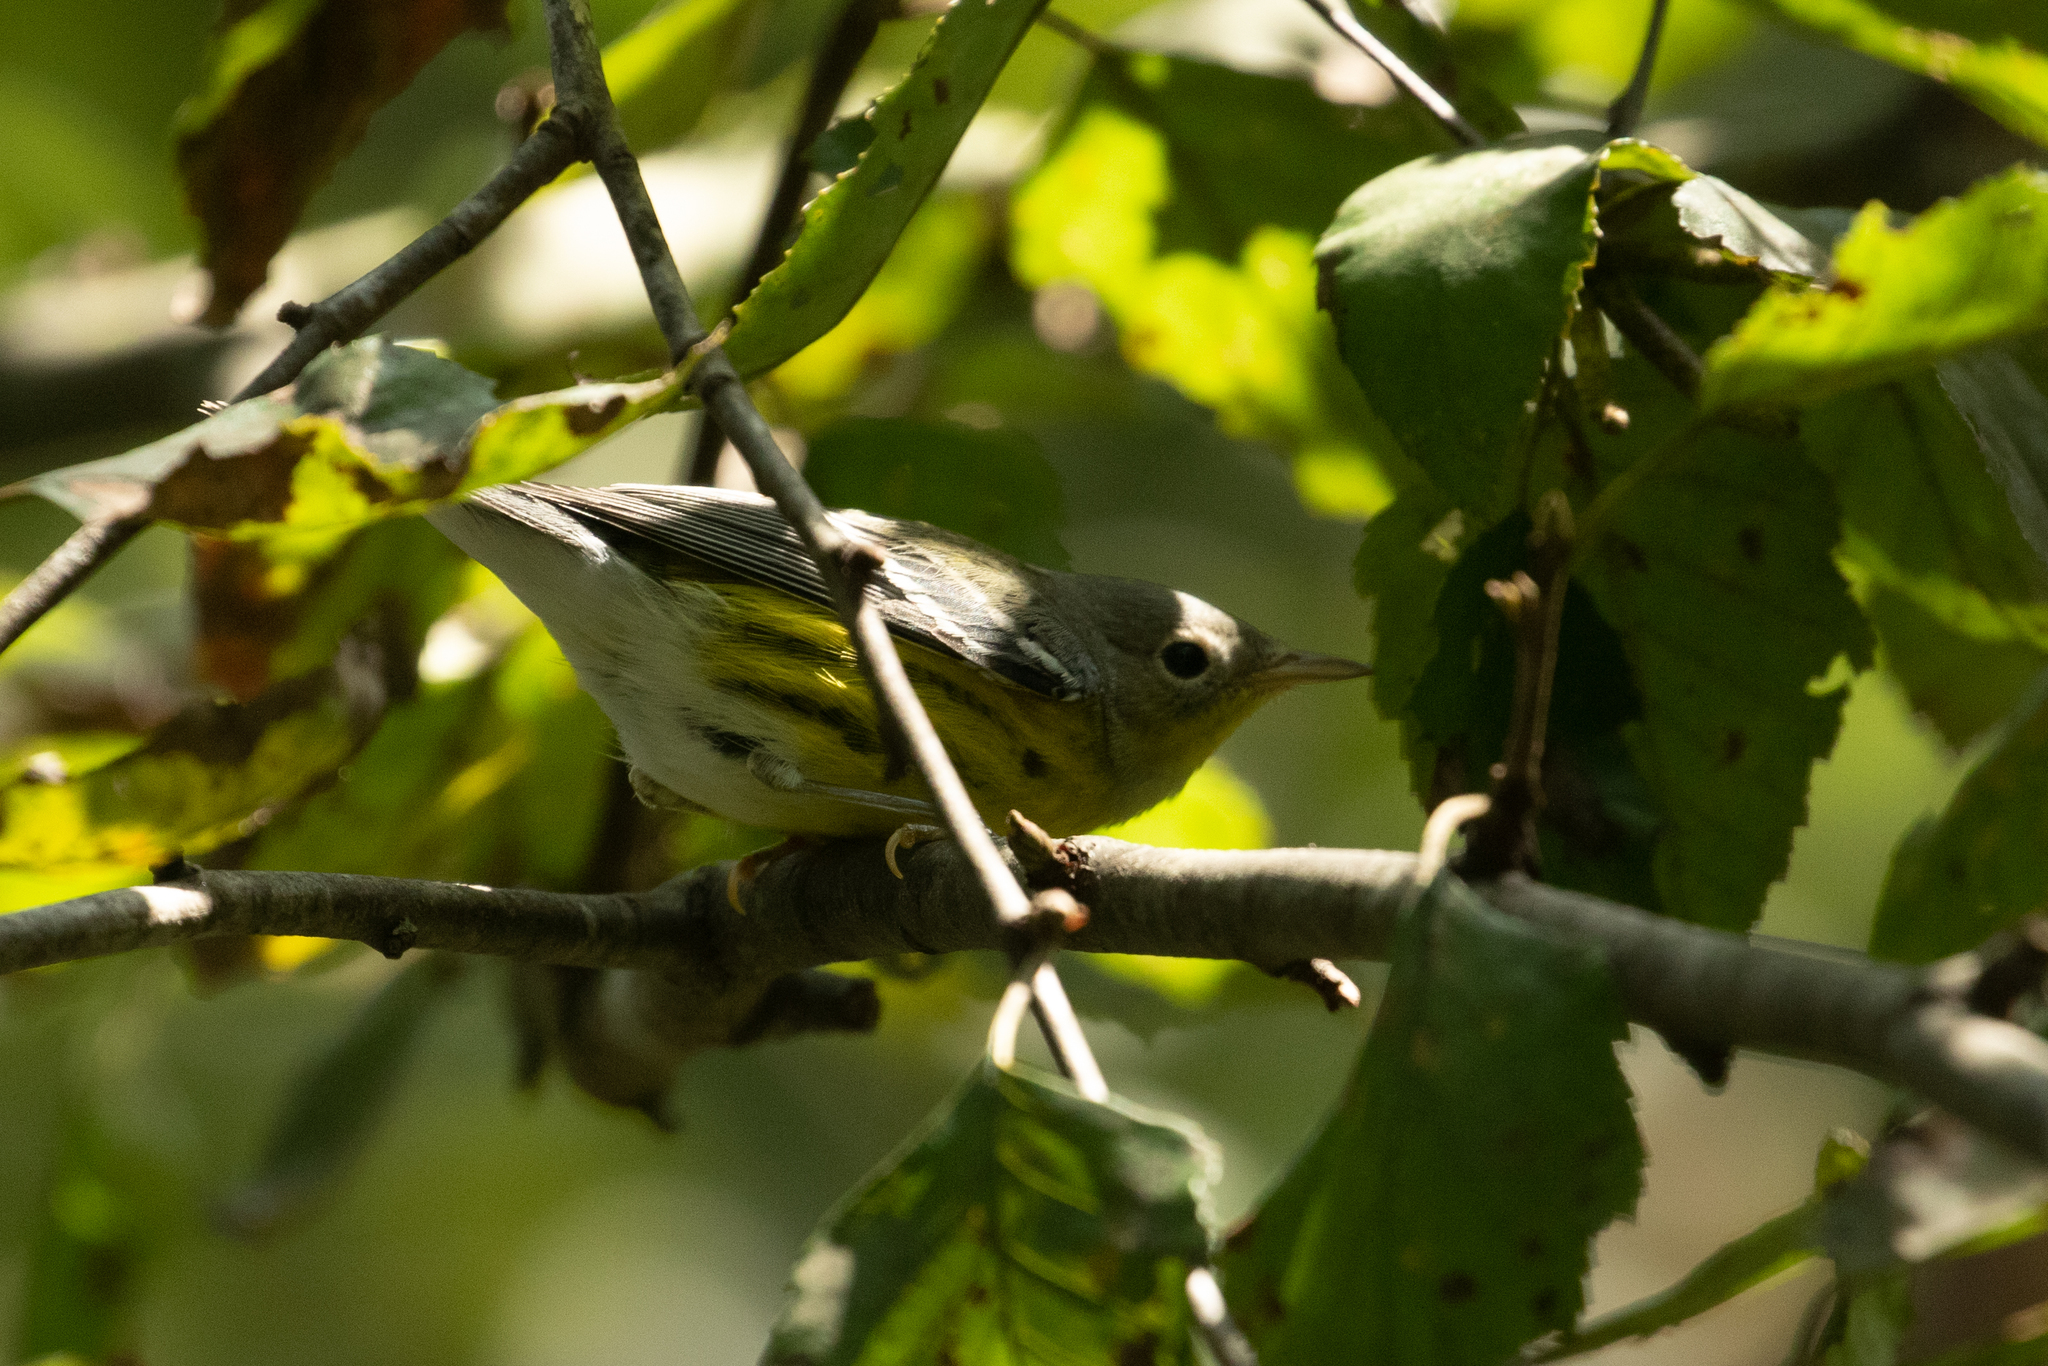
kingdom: Animalia
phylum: Chordata
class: Aves
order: Passeriformes
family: Parulidae
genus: Setophaga
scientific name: Setophaga magnolia
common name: Magnolia warbler
